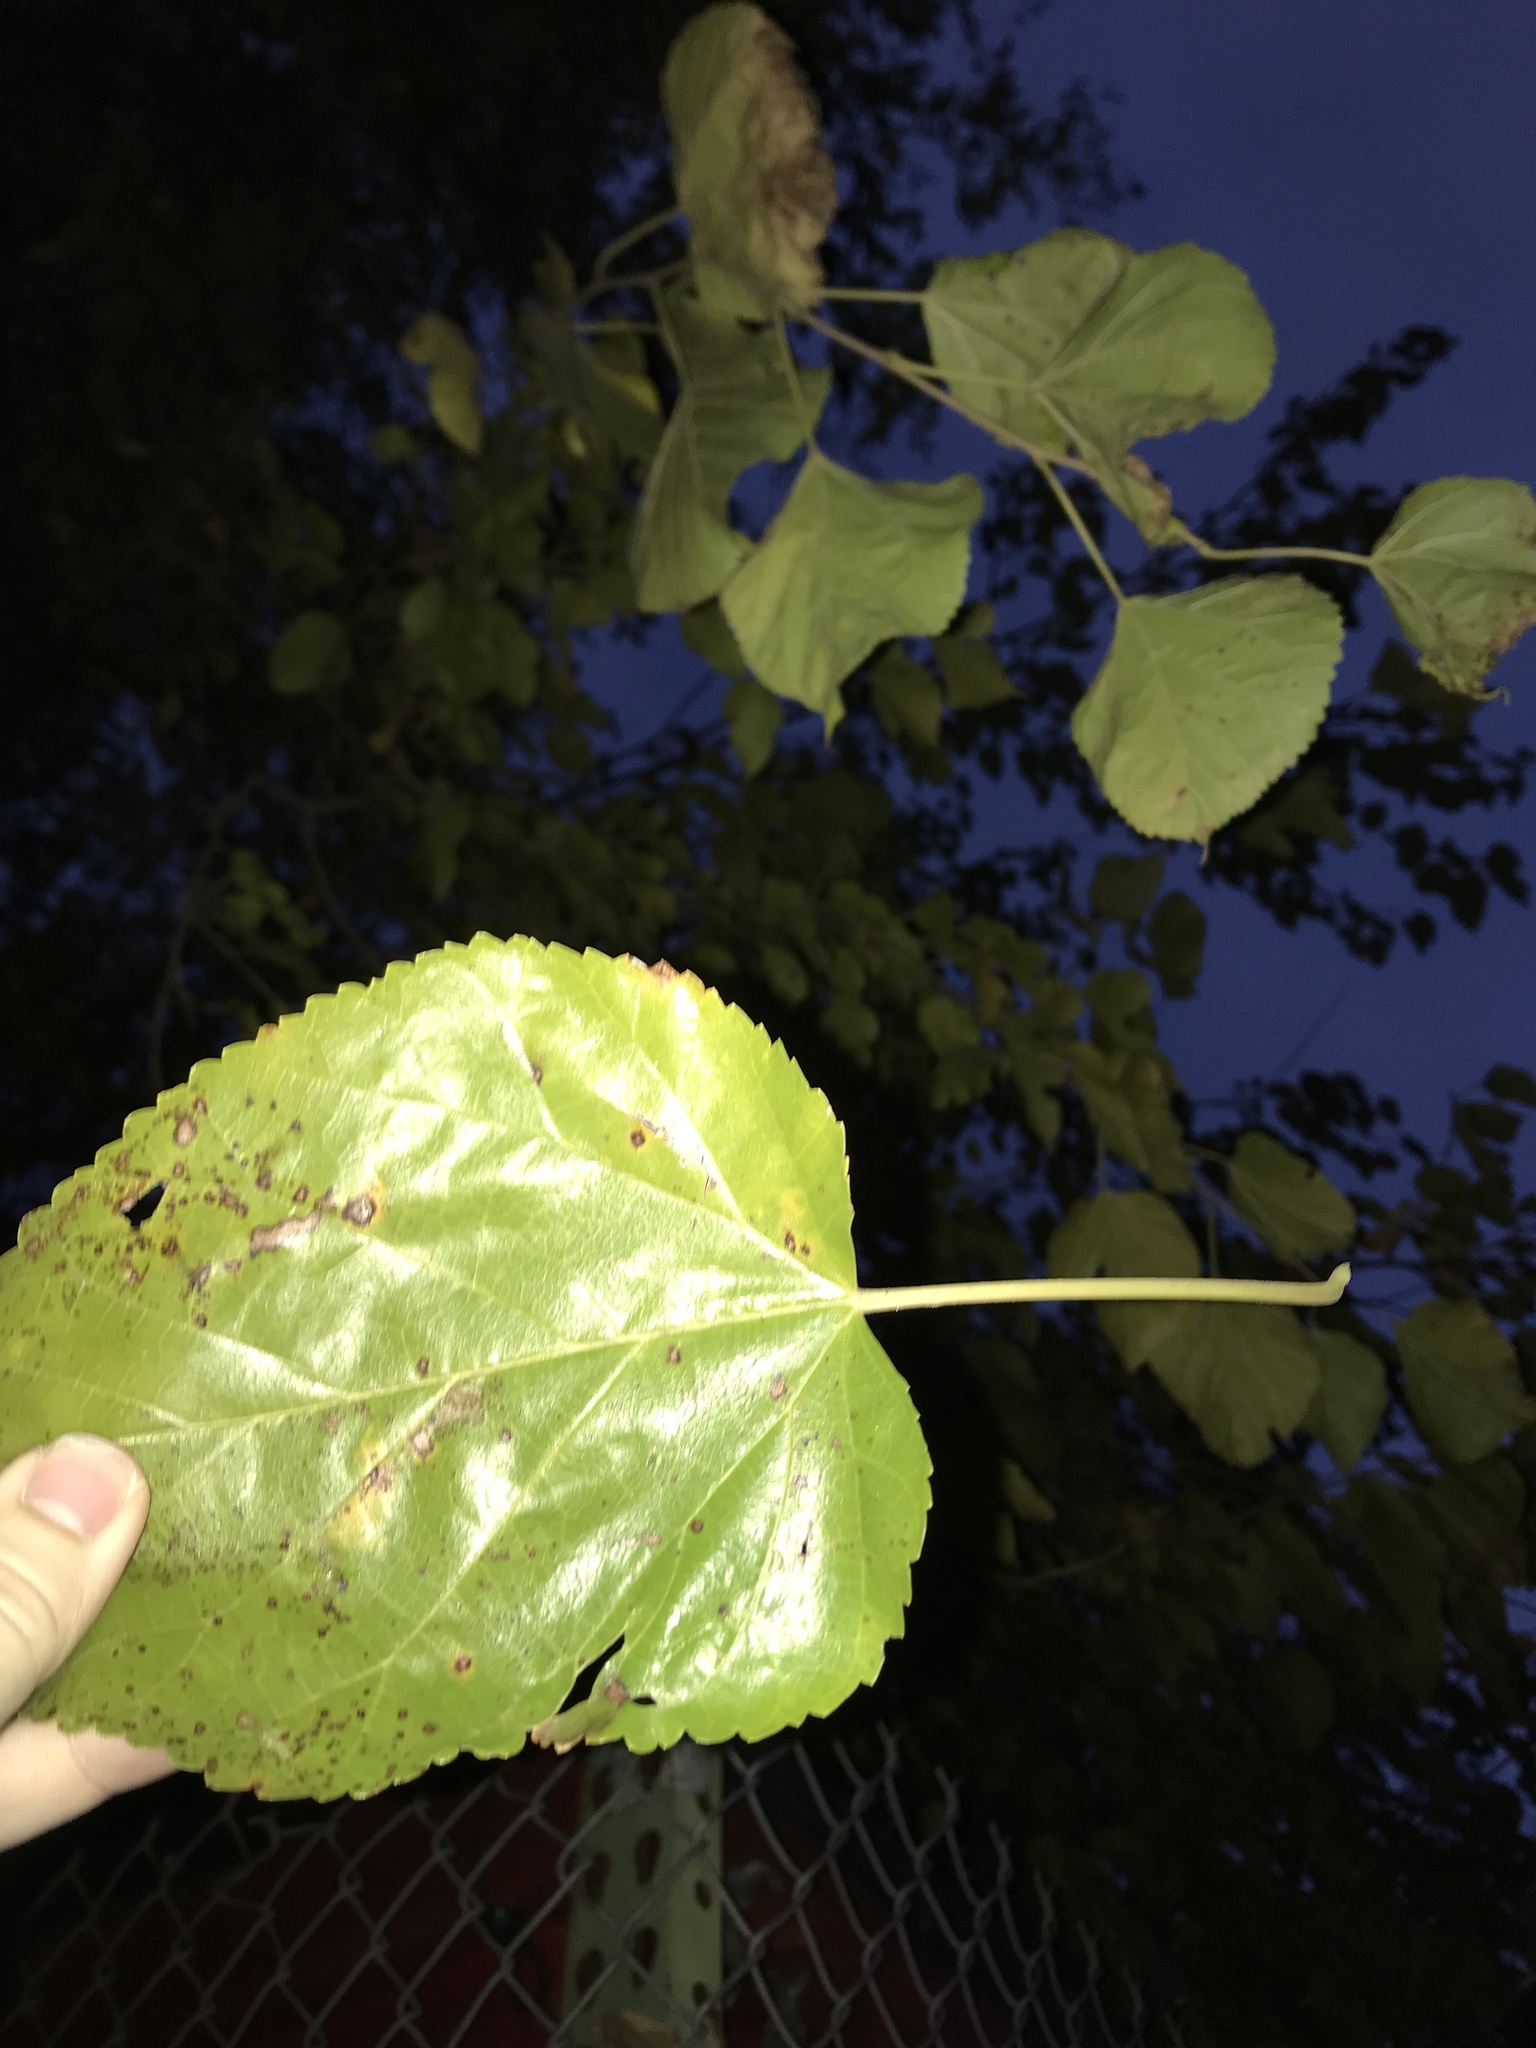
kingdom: Plantae
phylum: Tracheophyta
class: Magnoliopsida
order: Rosales
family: Moraceae
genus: Morus
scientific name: Morus alba
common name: White mulberry
